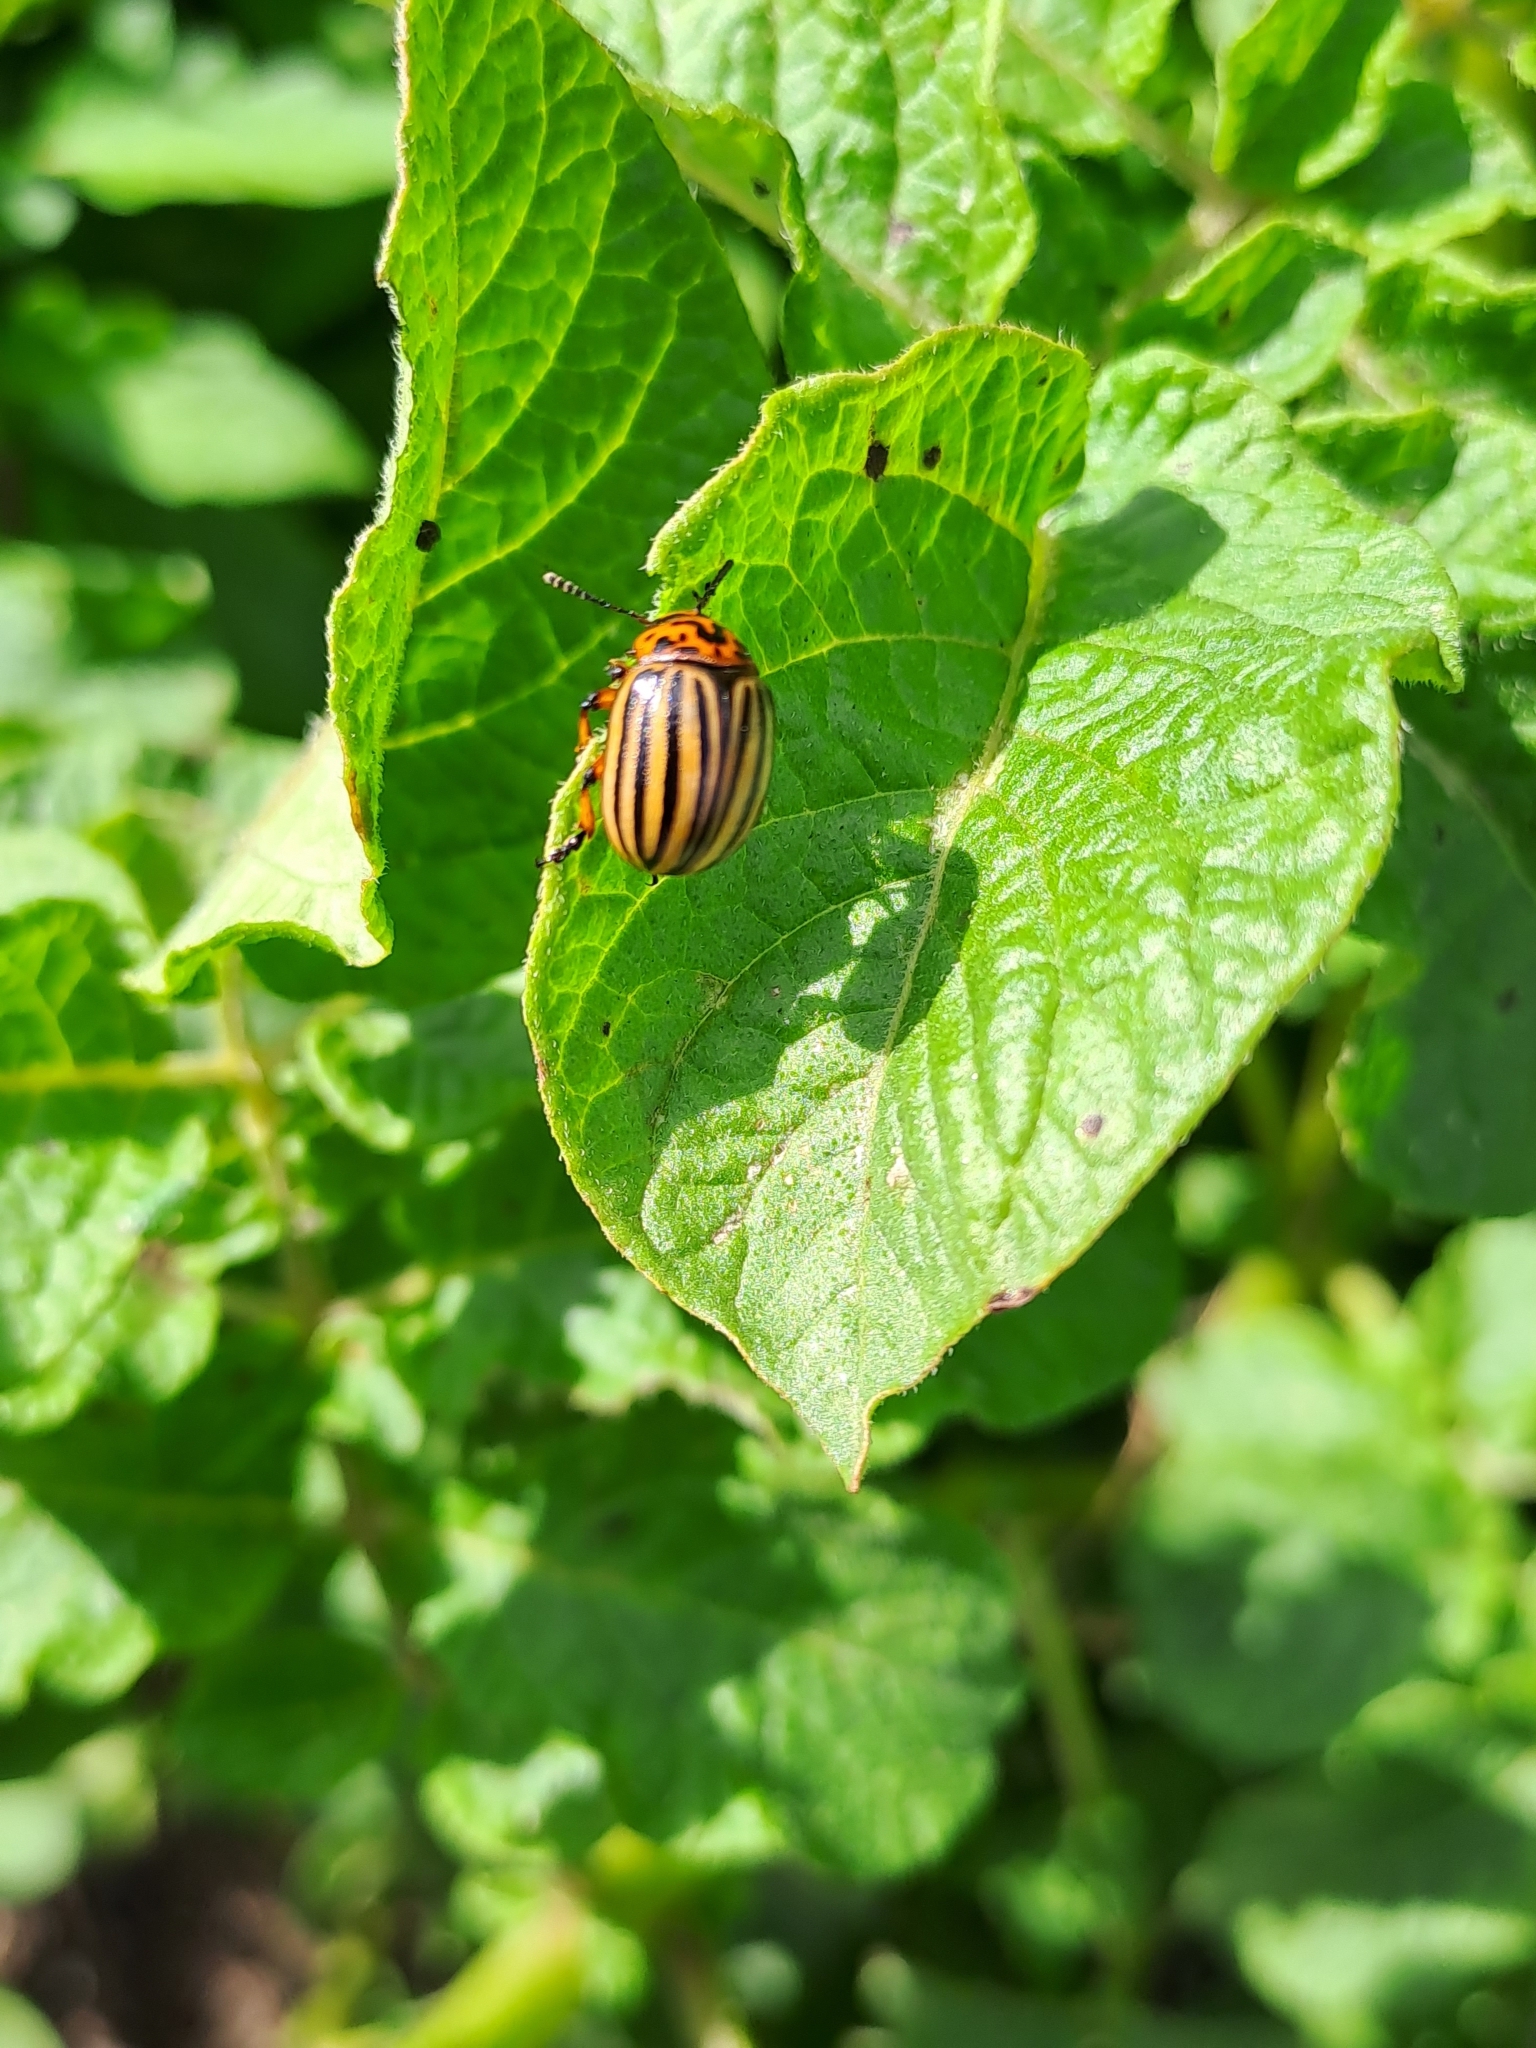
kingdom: Animalia
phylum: Arthropoda
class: Insecta
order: Coleoptera
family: Chrysomelidae
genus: Leptinotarsa
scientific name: Leptinotarsa decemlineata
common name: Colorado potato beetle
